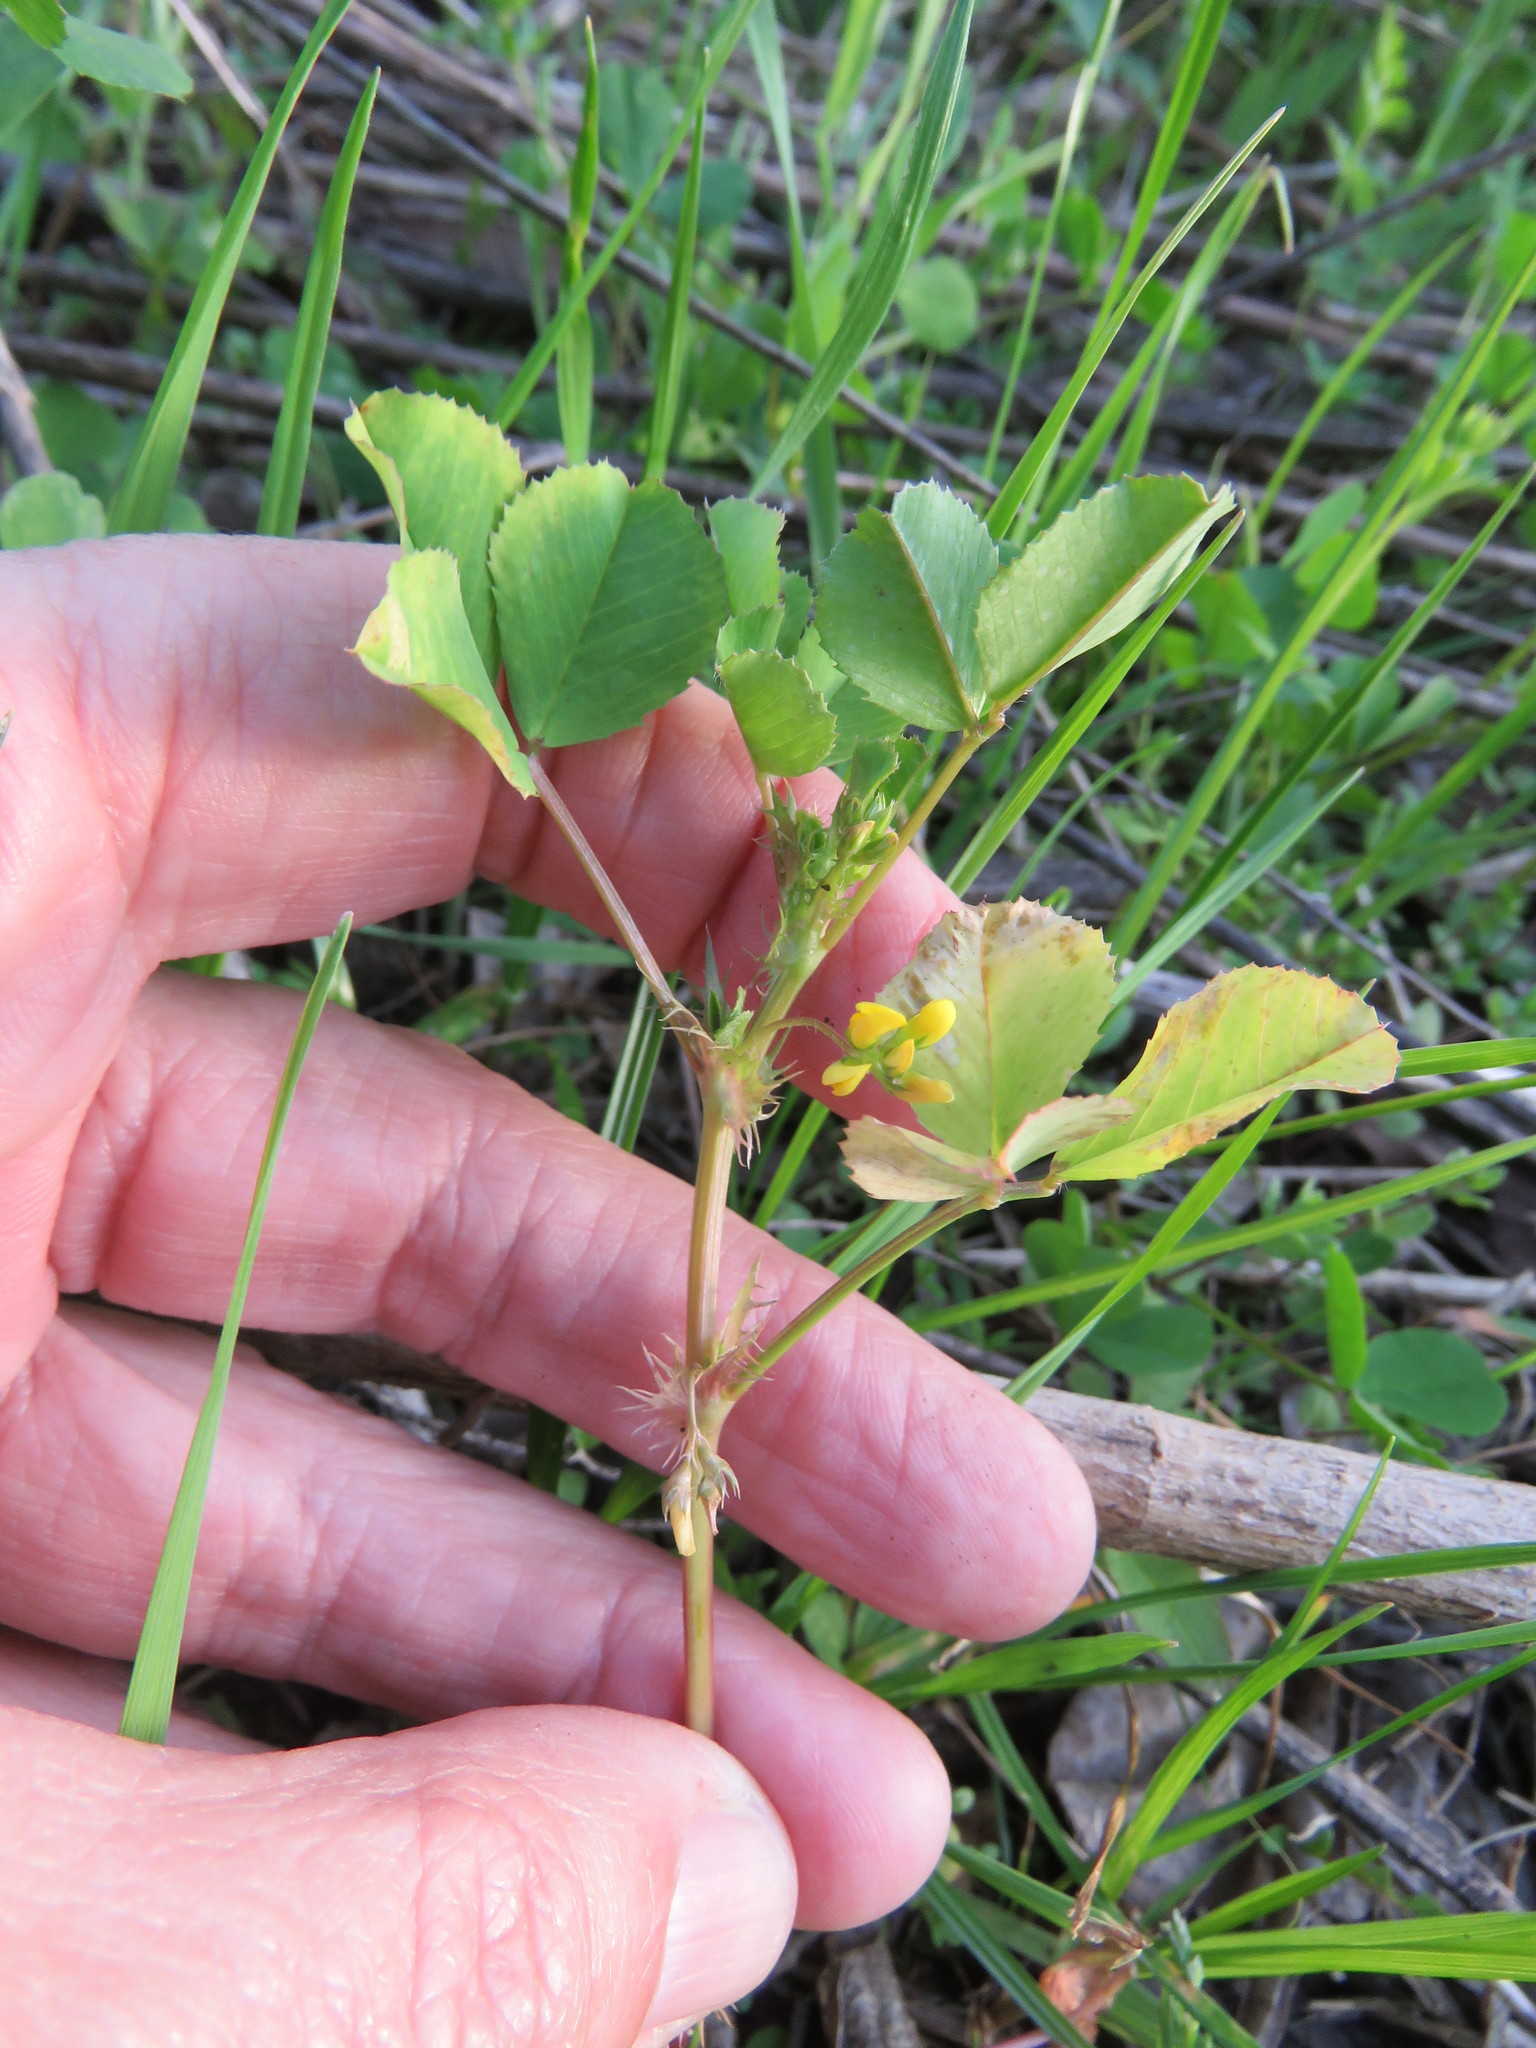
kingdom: Plantae
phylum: Tracheophyta
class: Magnoliopsida
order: Fabales
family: Fabaceae
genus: Medicago
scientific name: Medicago polymorpha
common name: Burclover
